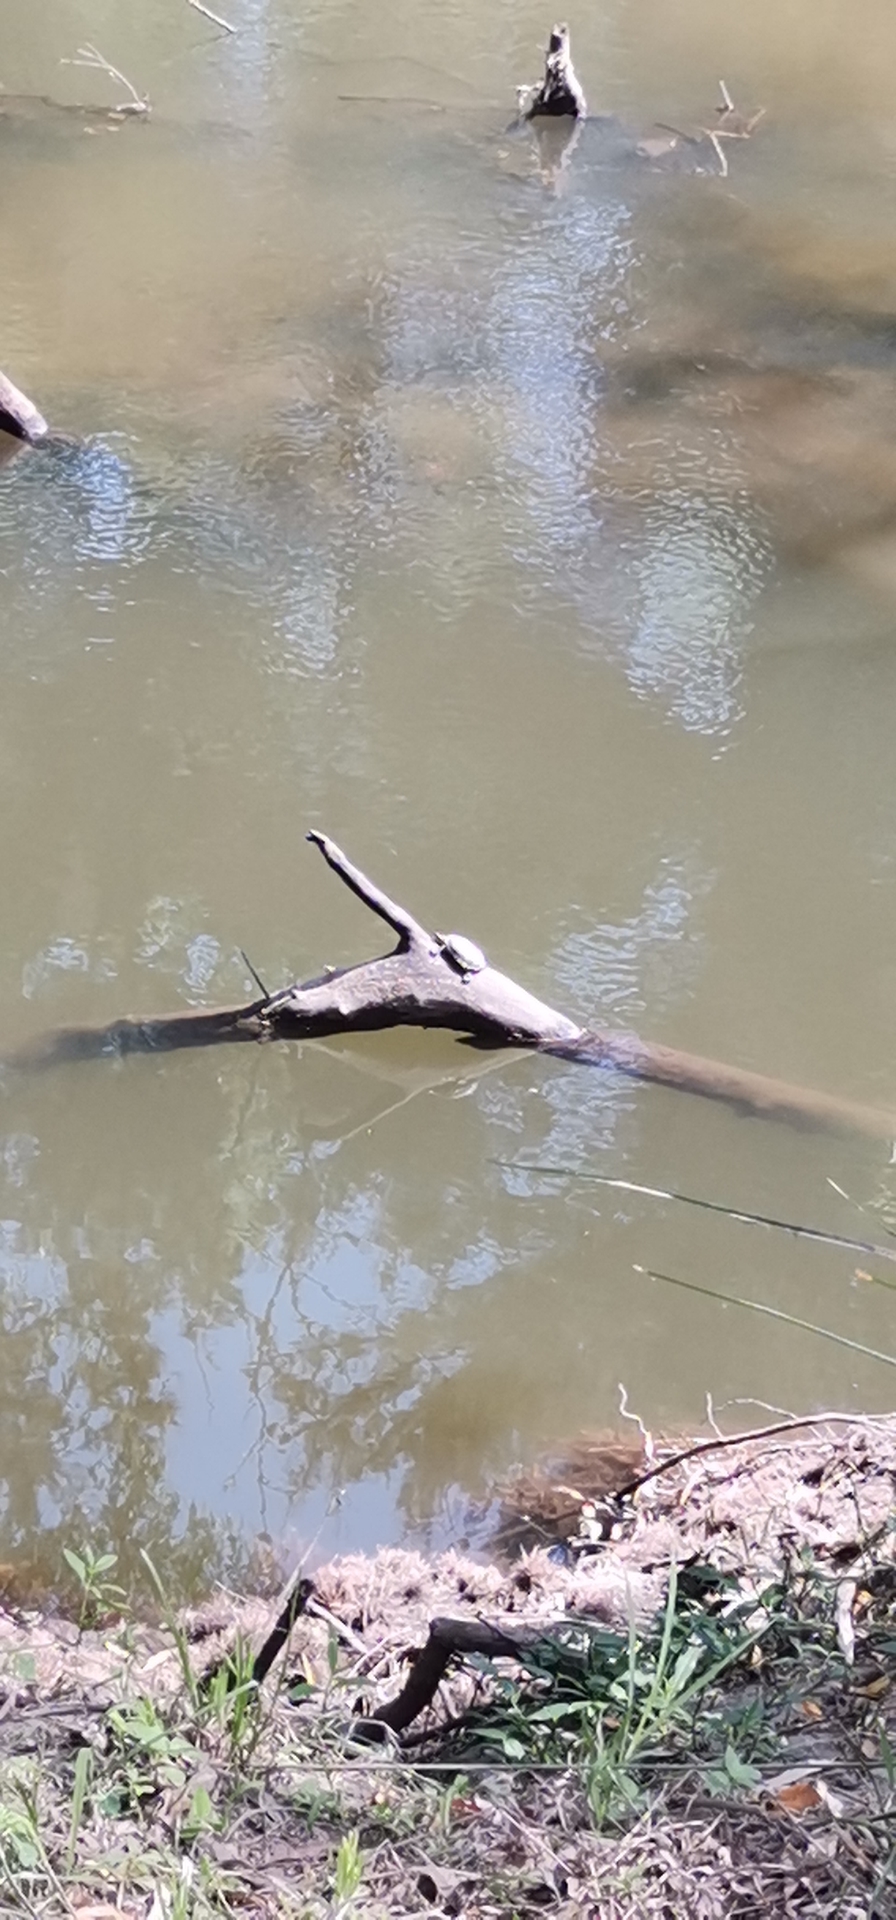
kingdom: Animalia
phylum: Chordata
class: Testudines
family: Kinosternidae
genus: Kinosternon
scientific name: Kinosternon integrum
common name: Mexican mud turtle
